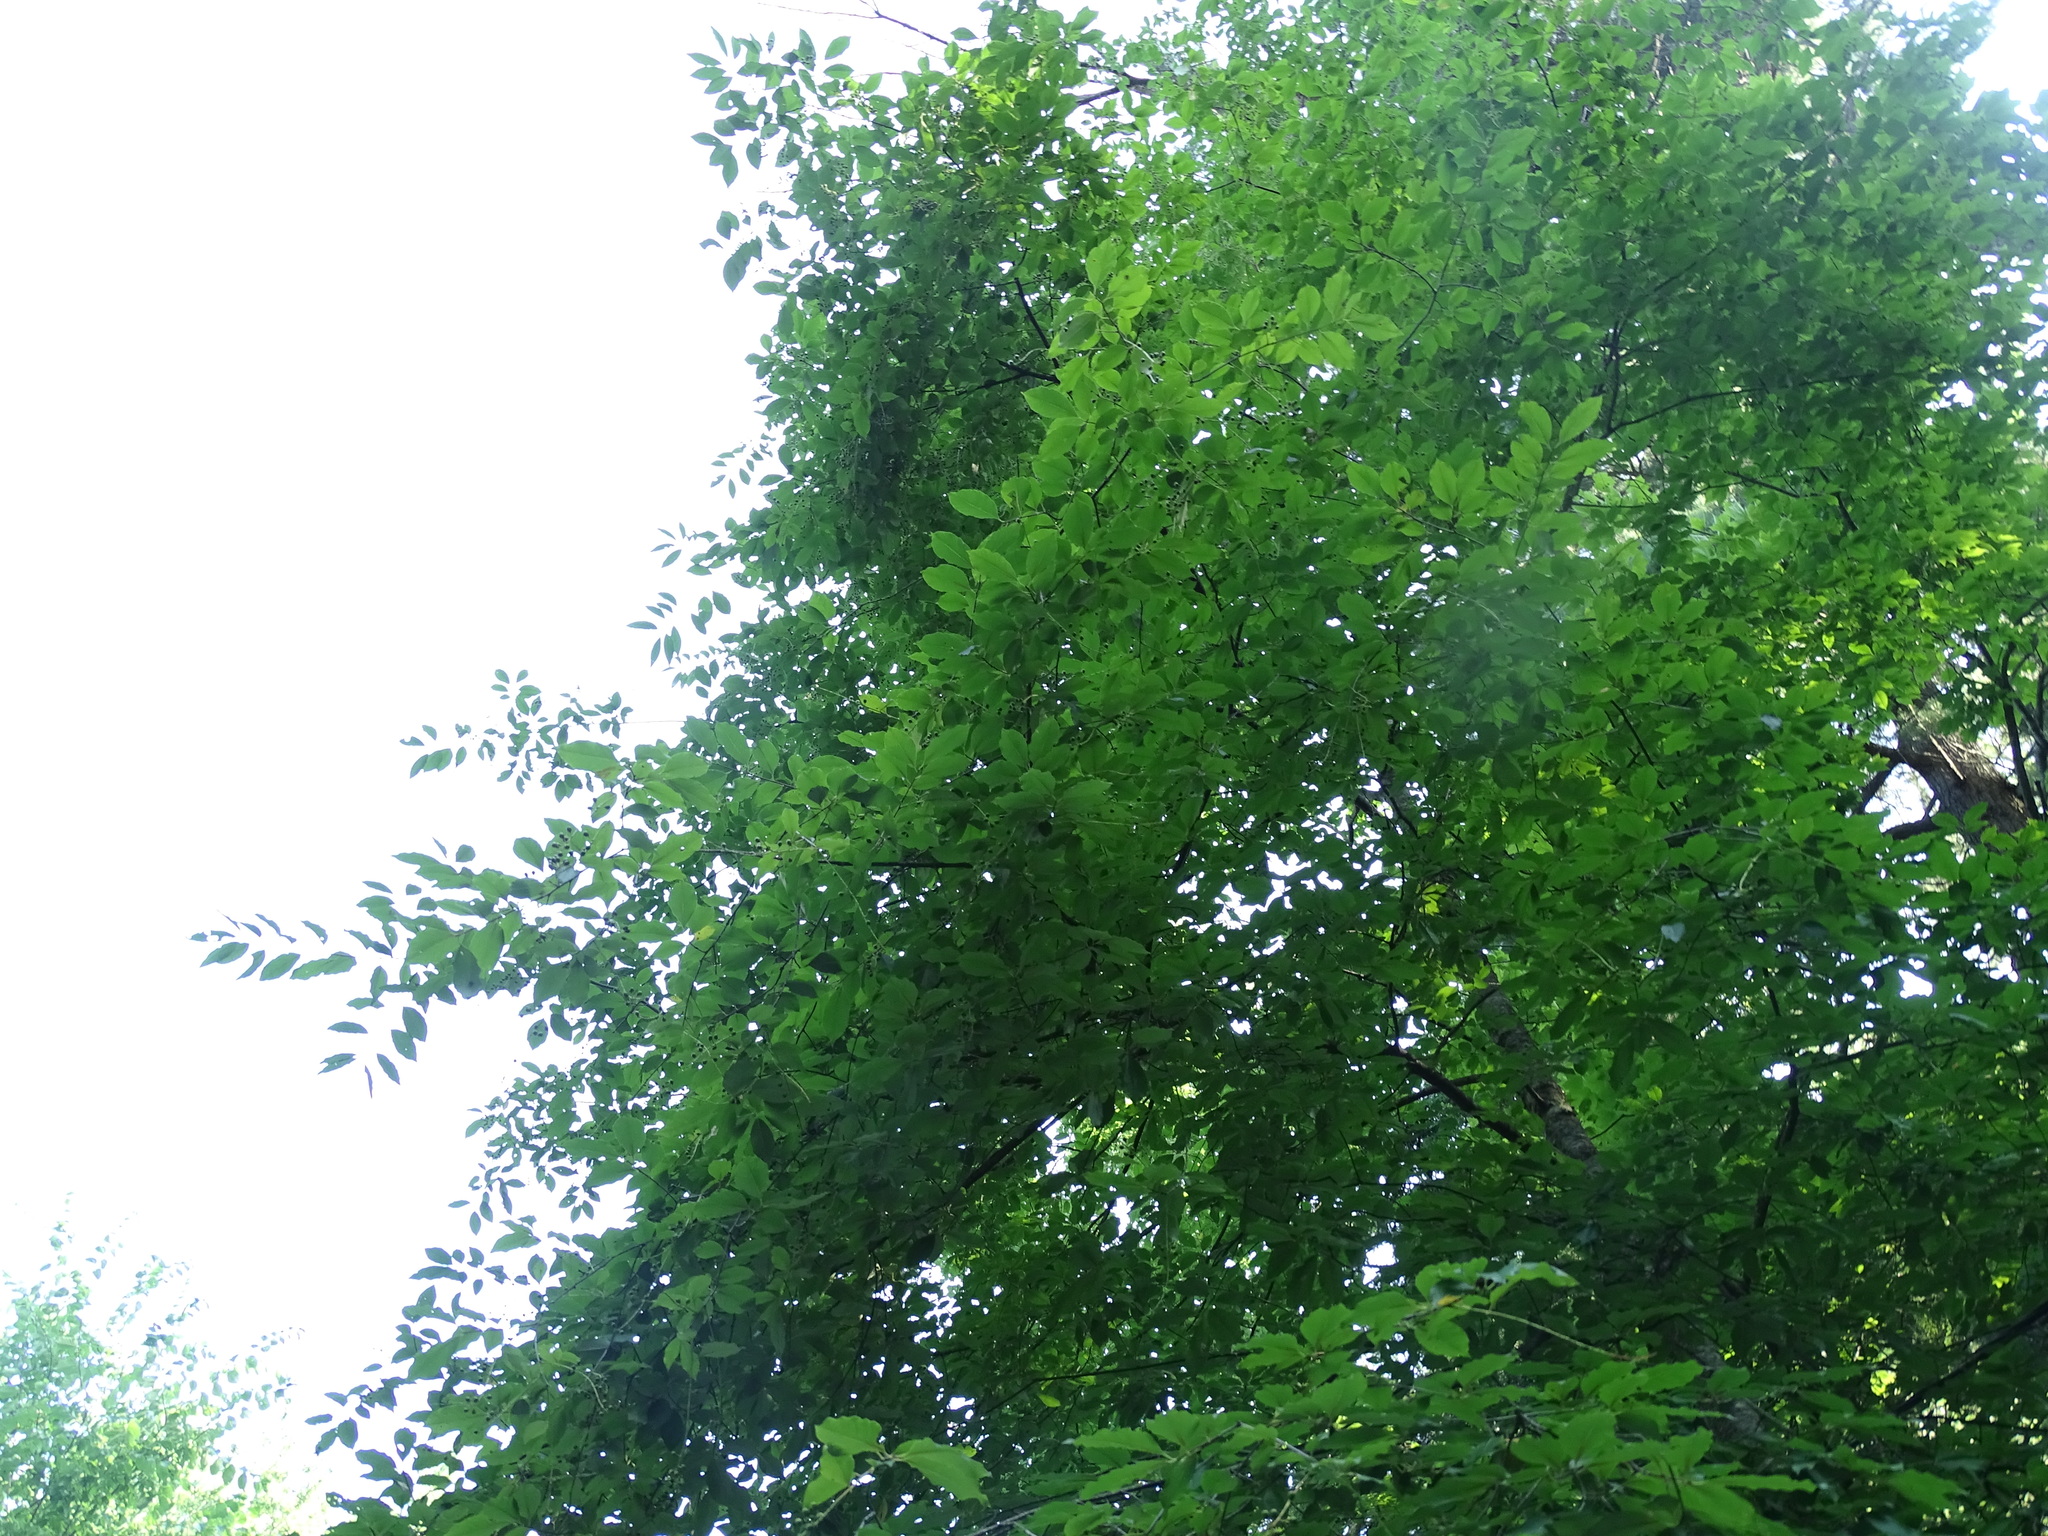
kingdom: Plantae
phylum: Tracheophyta
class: Magnoliopsida
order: Rosales
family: Rosaceae
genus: Prunus
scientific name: Prunus serotina
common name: Black cherry
